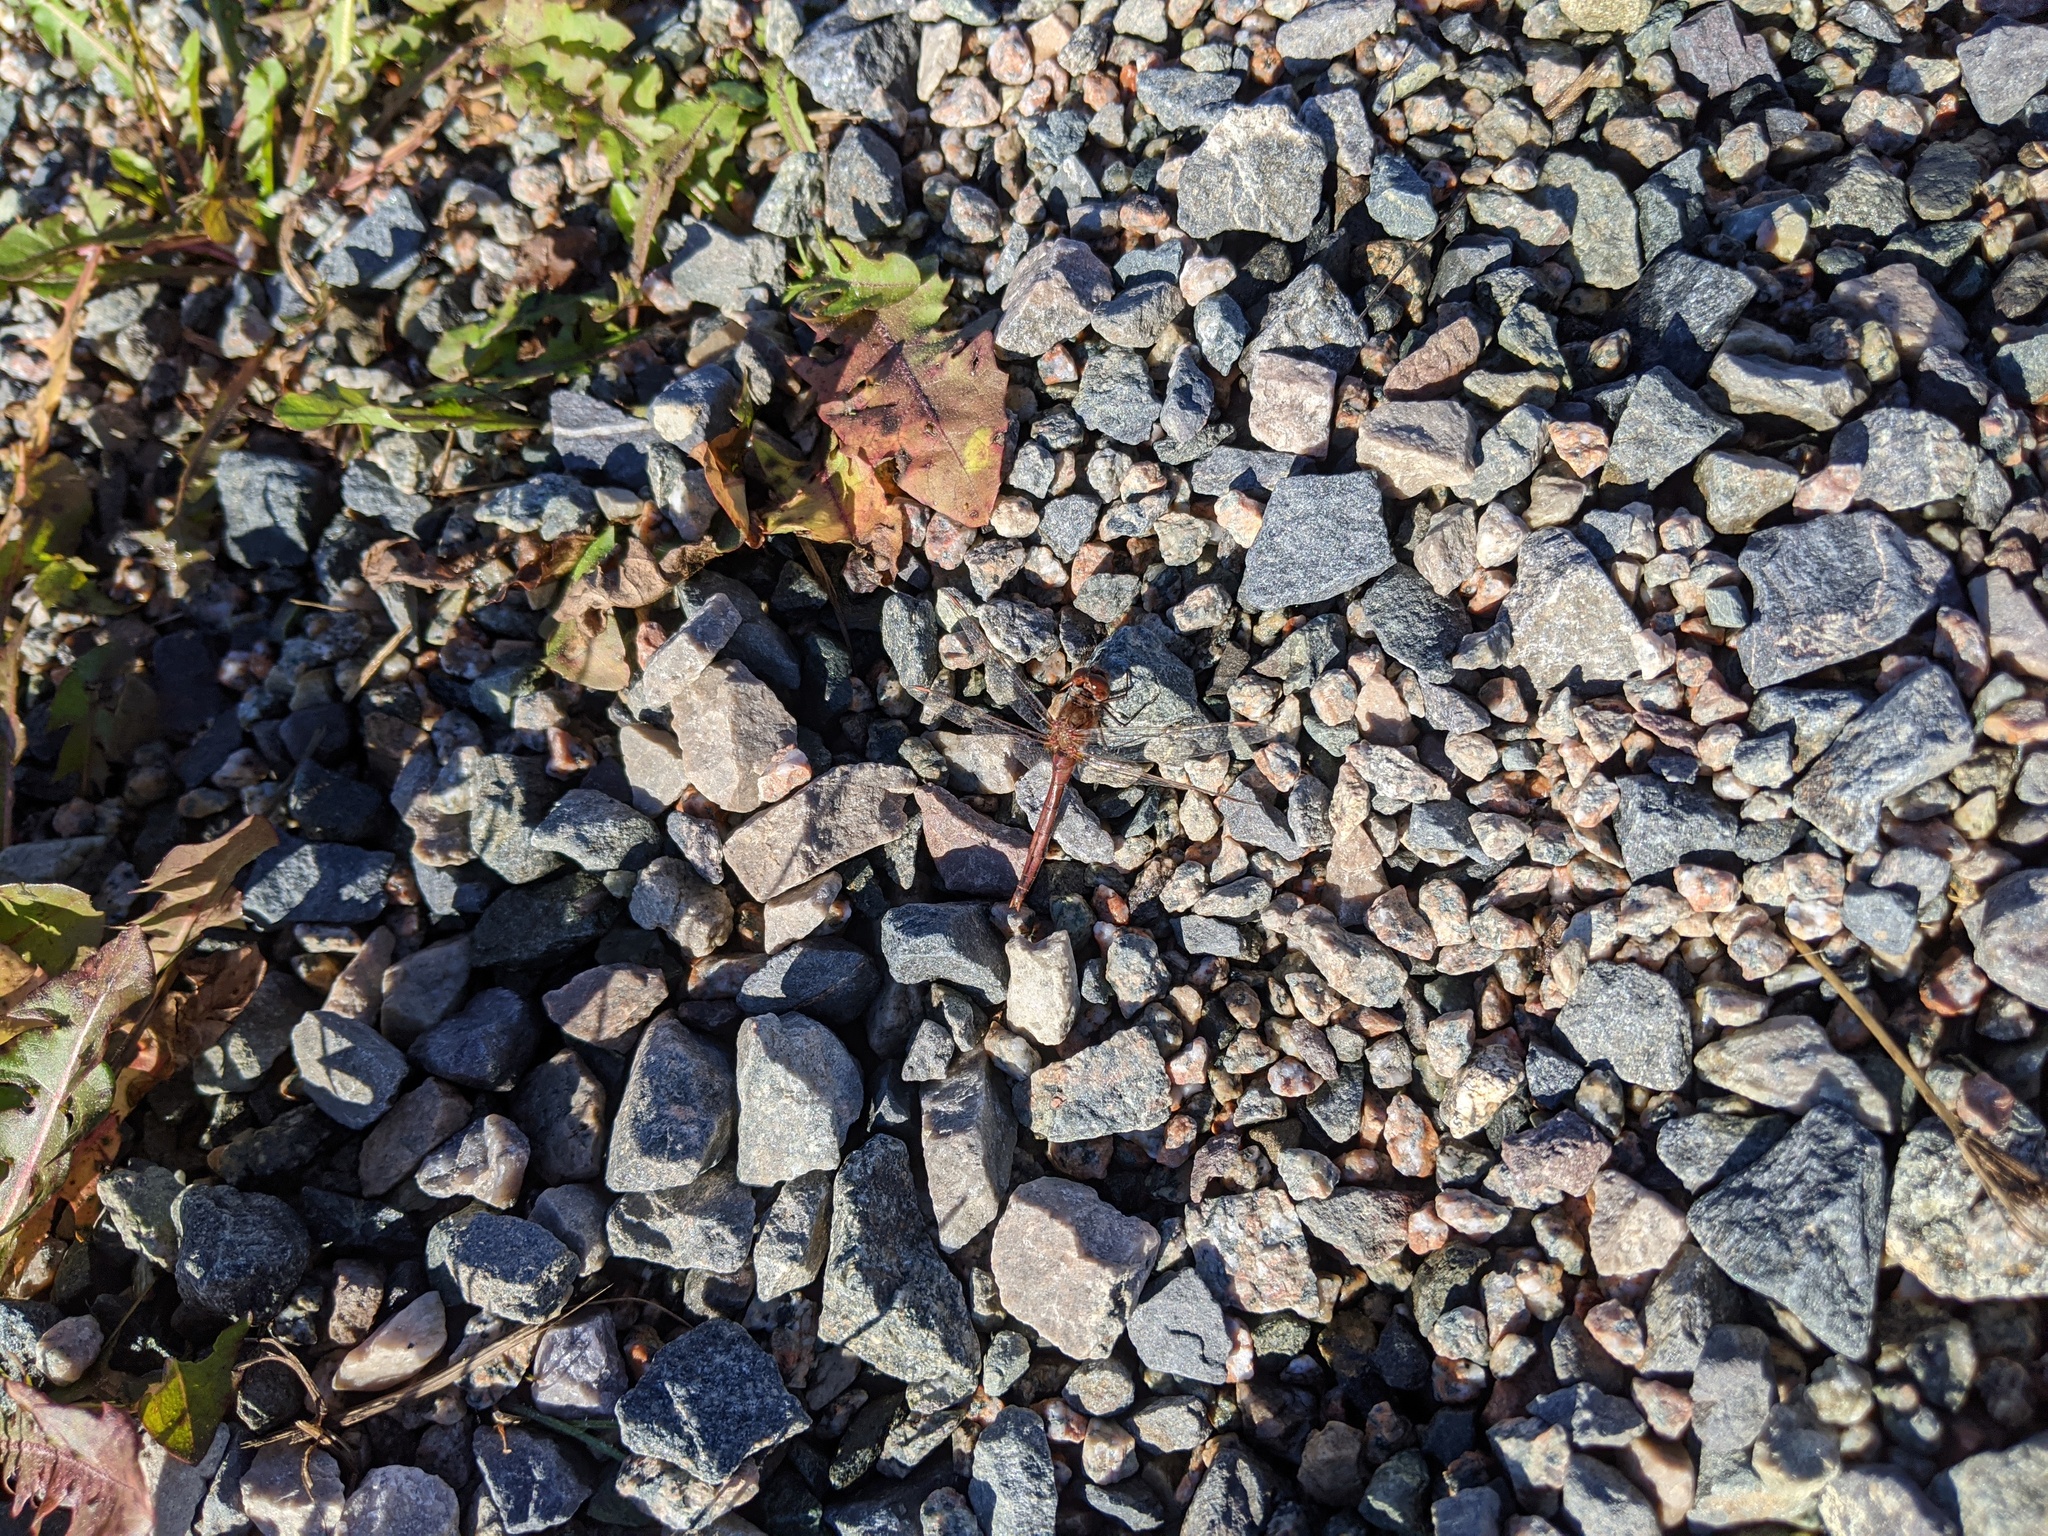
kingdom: Animalia
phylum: Arthropoda
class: Insecta
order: Odonata
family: Libellulidae
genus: Sympetrum
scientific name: Sympetrum costiferum
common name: Saffron-winged meadowhawk
